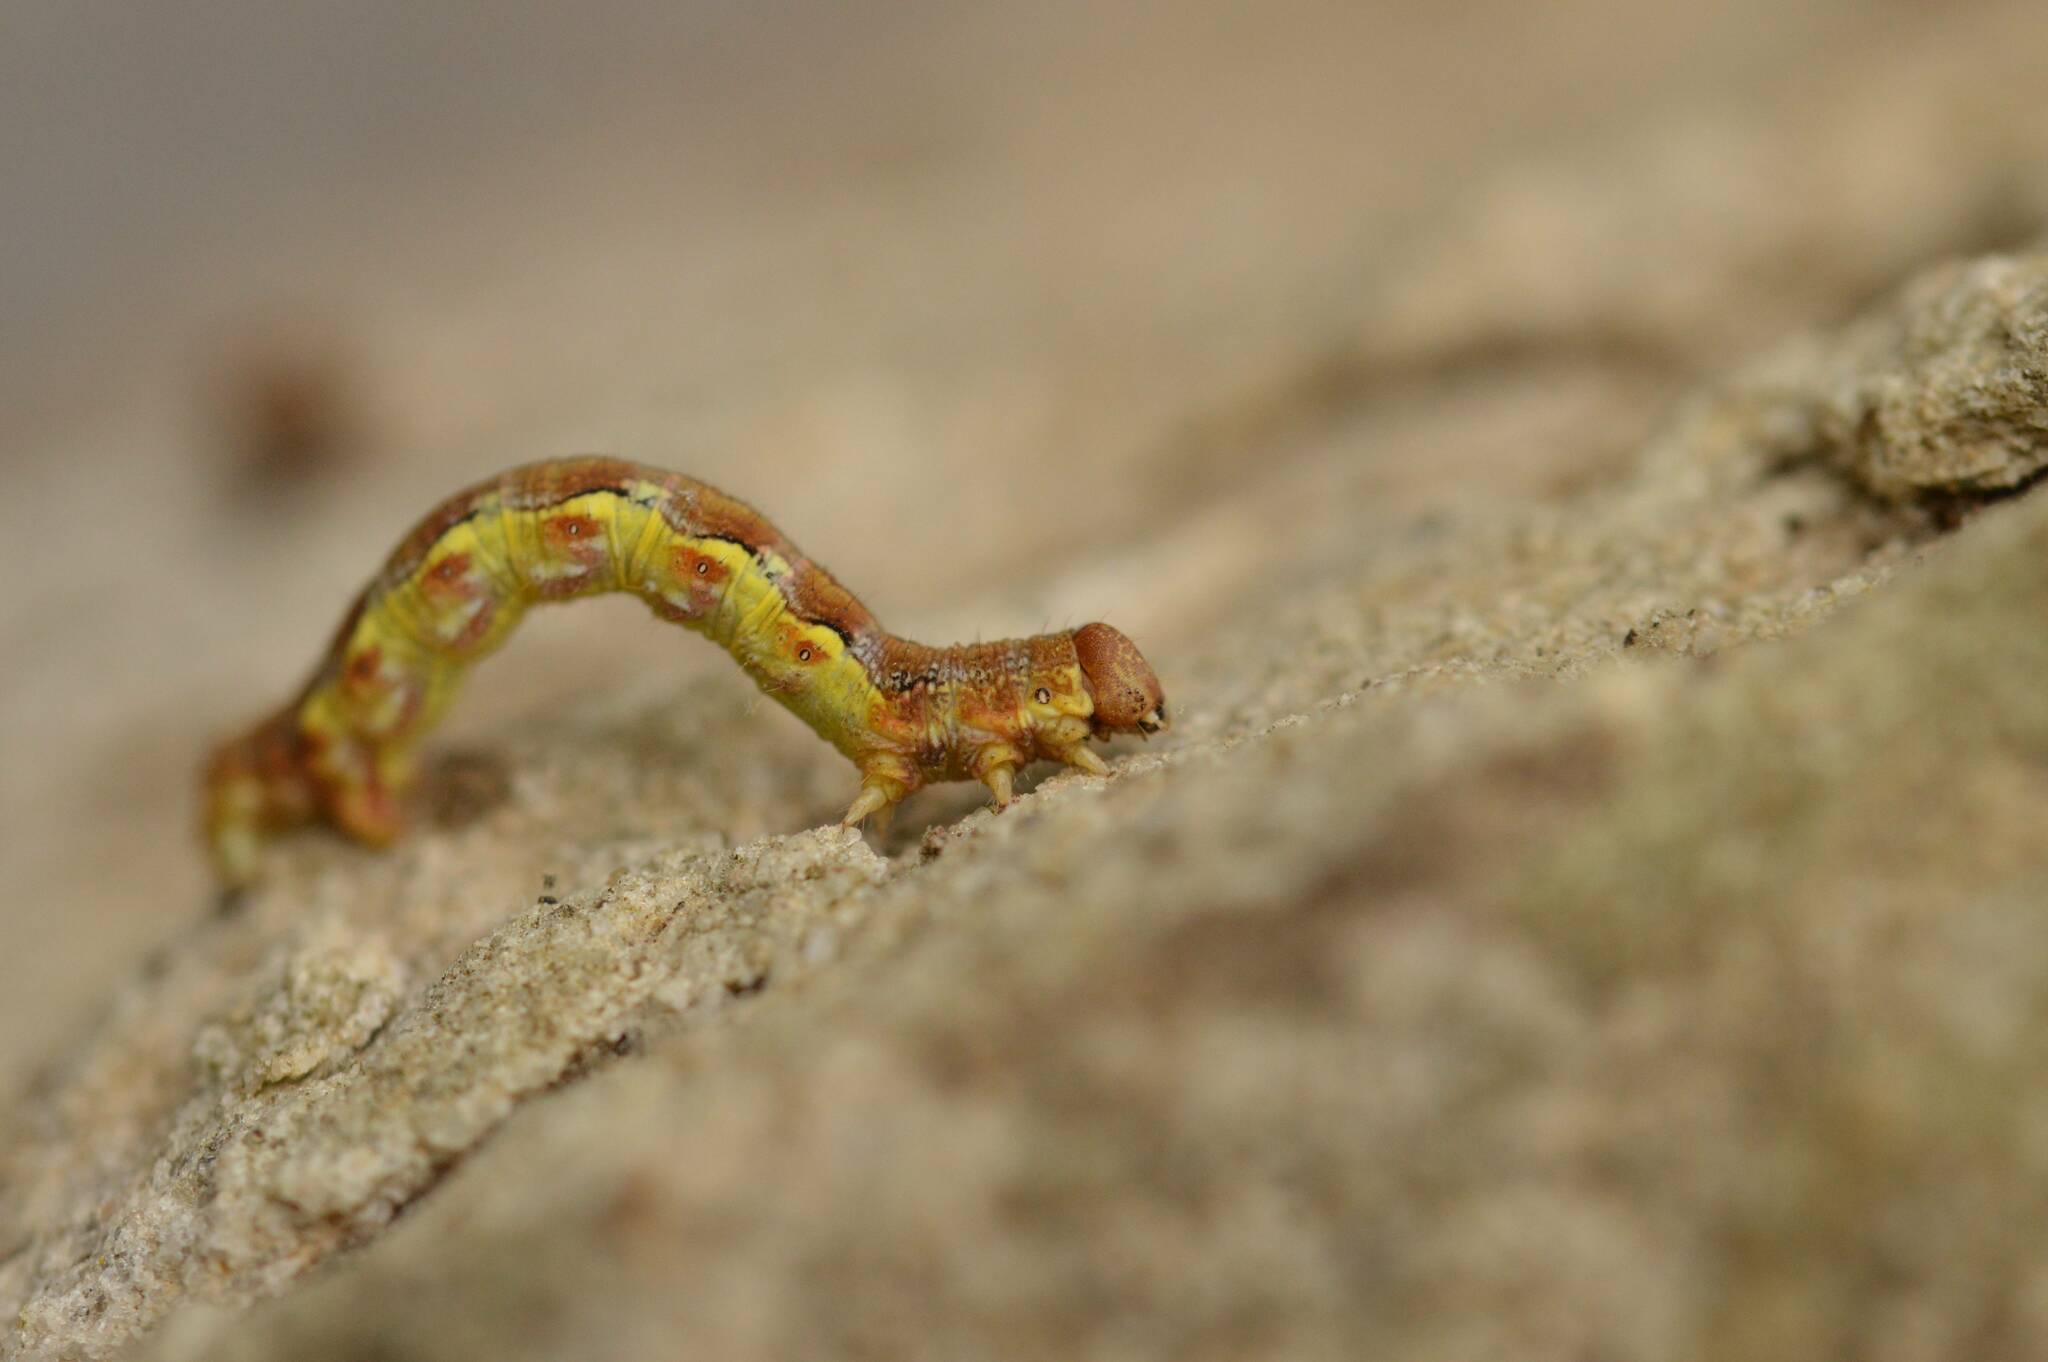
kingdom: Animalia
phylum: Arthropoda
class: Insecta
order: Lepidoptera
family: Geometridae
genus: Erannis
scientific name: Erannis defoliaria
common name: Mottled umber
